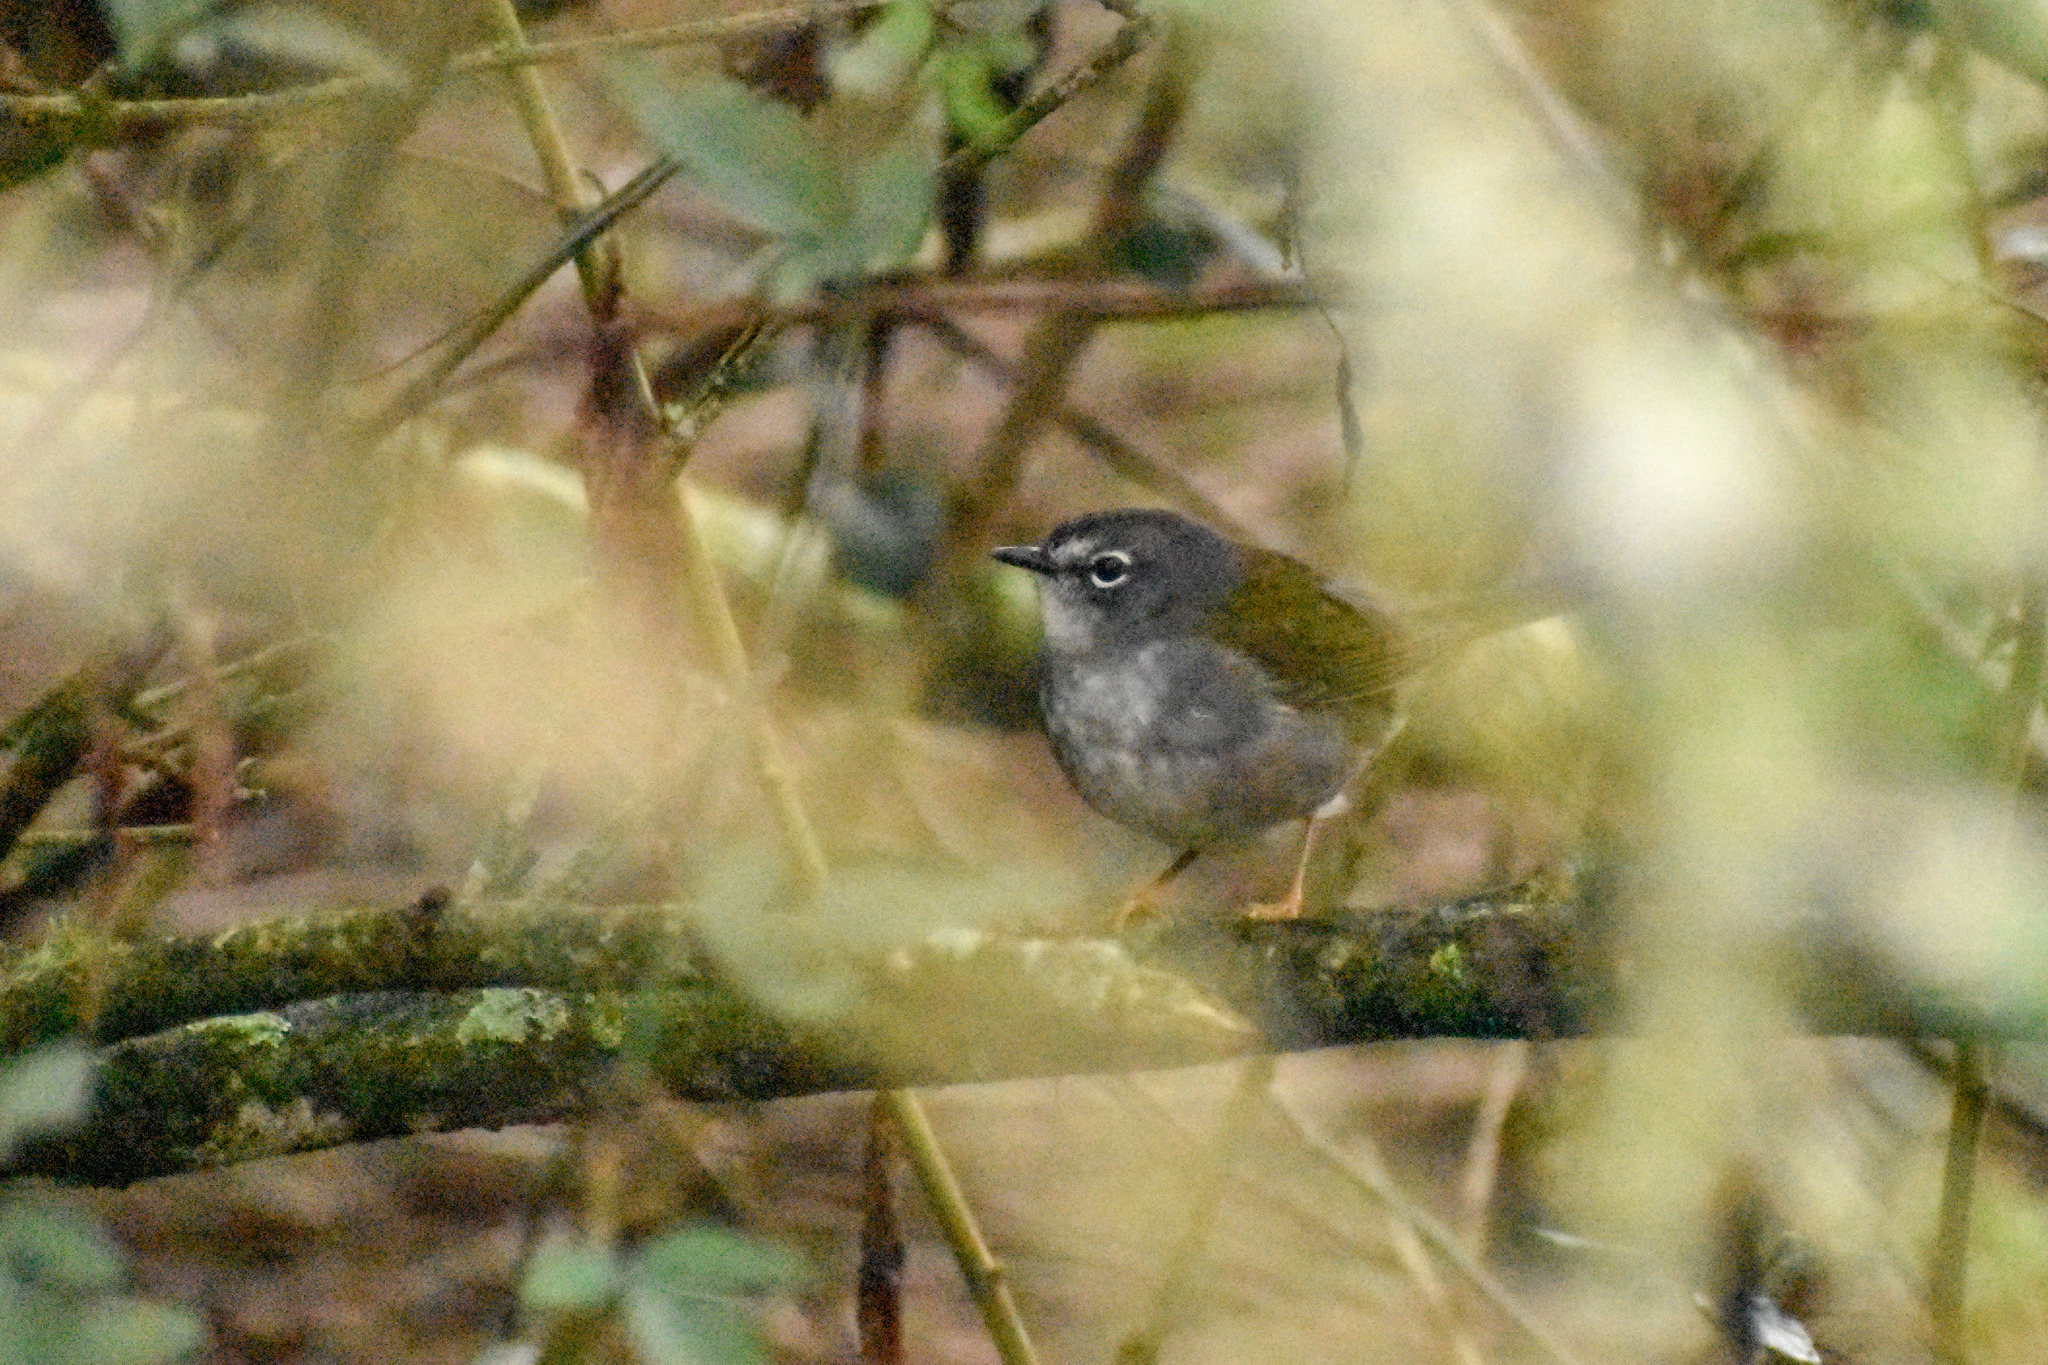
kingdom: Animalia
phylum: Chordata
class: Aves
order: Passeriformes
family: Parulidae
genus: Myiothlypis
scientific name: Myiothlypis leucoblephara
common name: White-rimmed warbler
